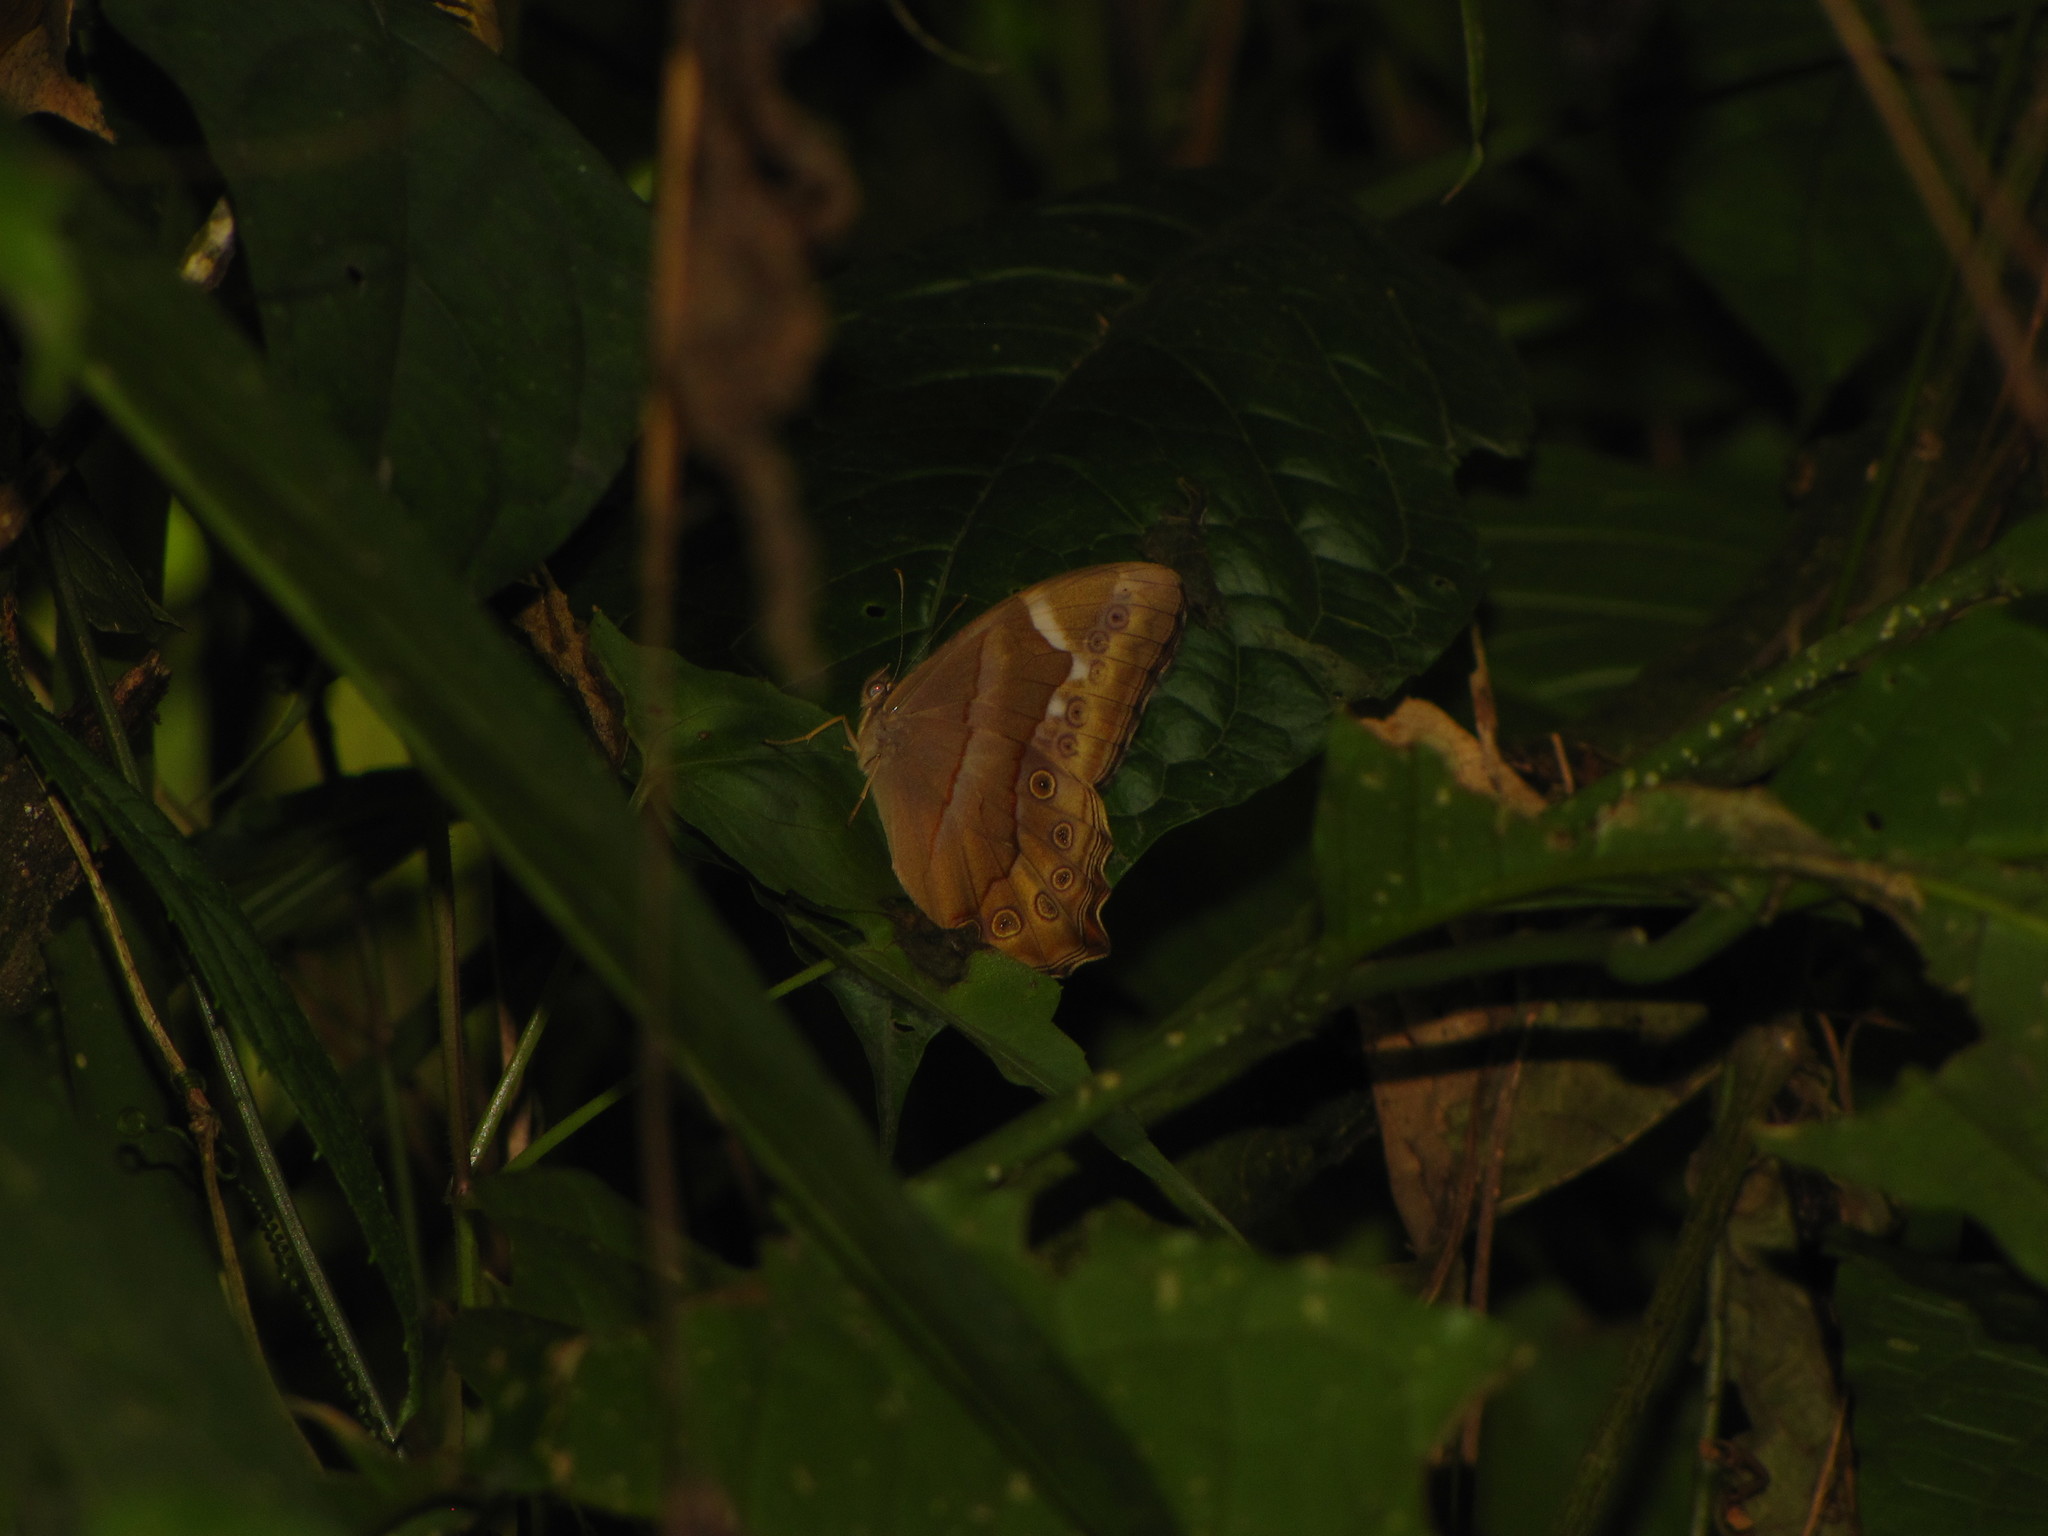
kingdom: Animalia
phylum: Arthropoda
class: Insecta
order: Lepidoptera
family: Nymphalidae
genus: Lethe
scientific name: Lethe mekara
